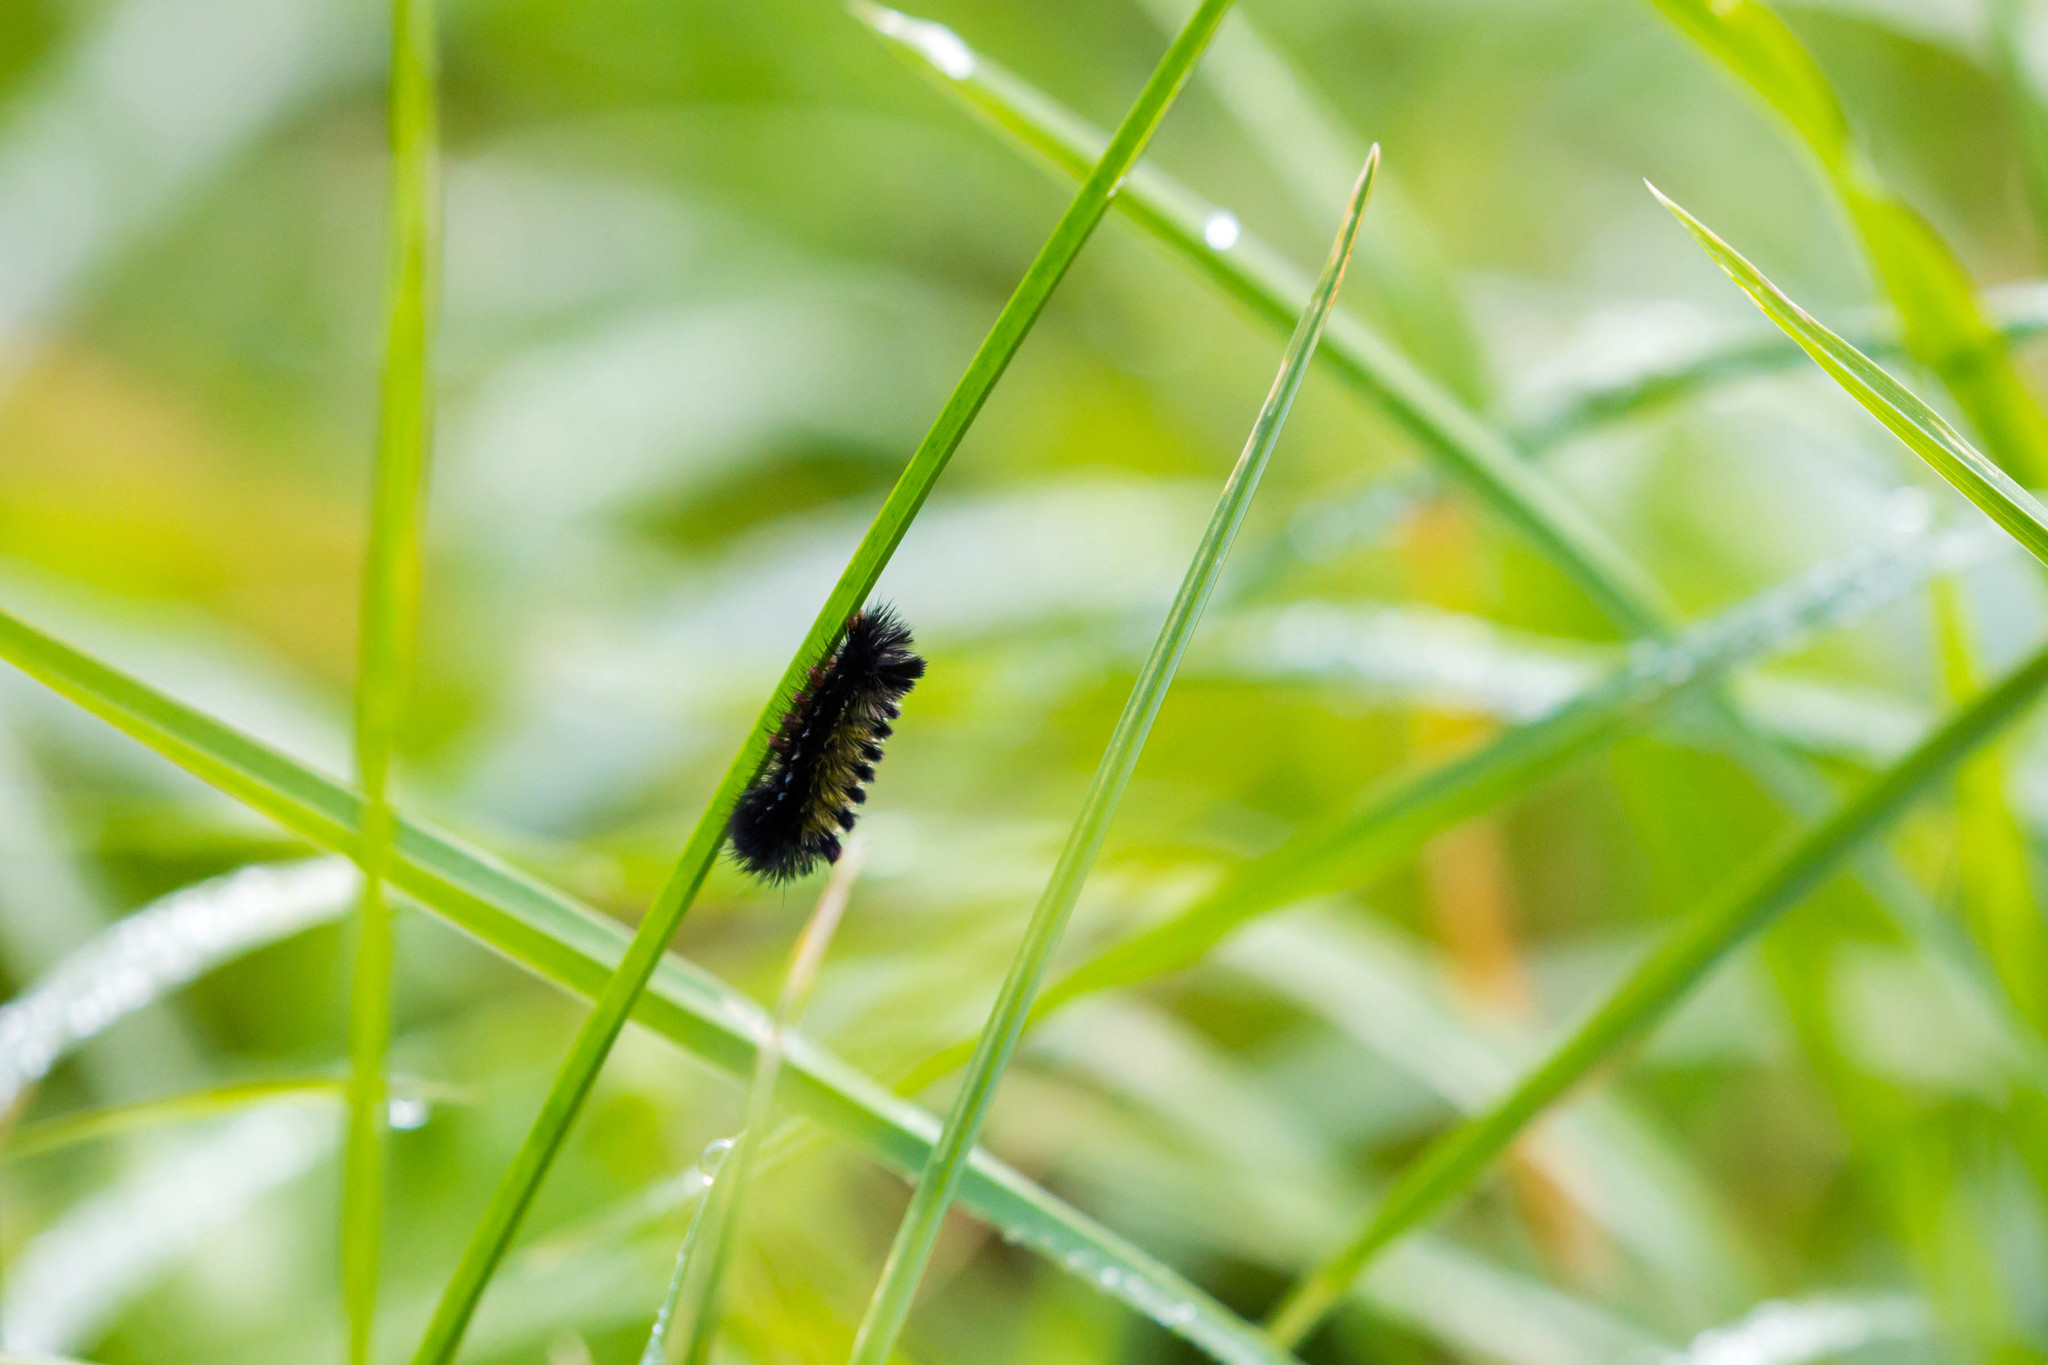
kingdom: Animalia
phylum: Arthropoda
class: Insecta
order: Lepidoptera
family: Erebidae
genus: Ctenucha
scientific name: Ctenucha virginica
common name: Virginia ctenucha moth
